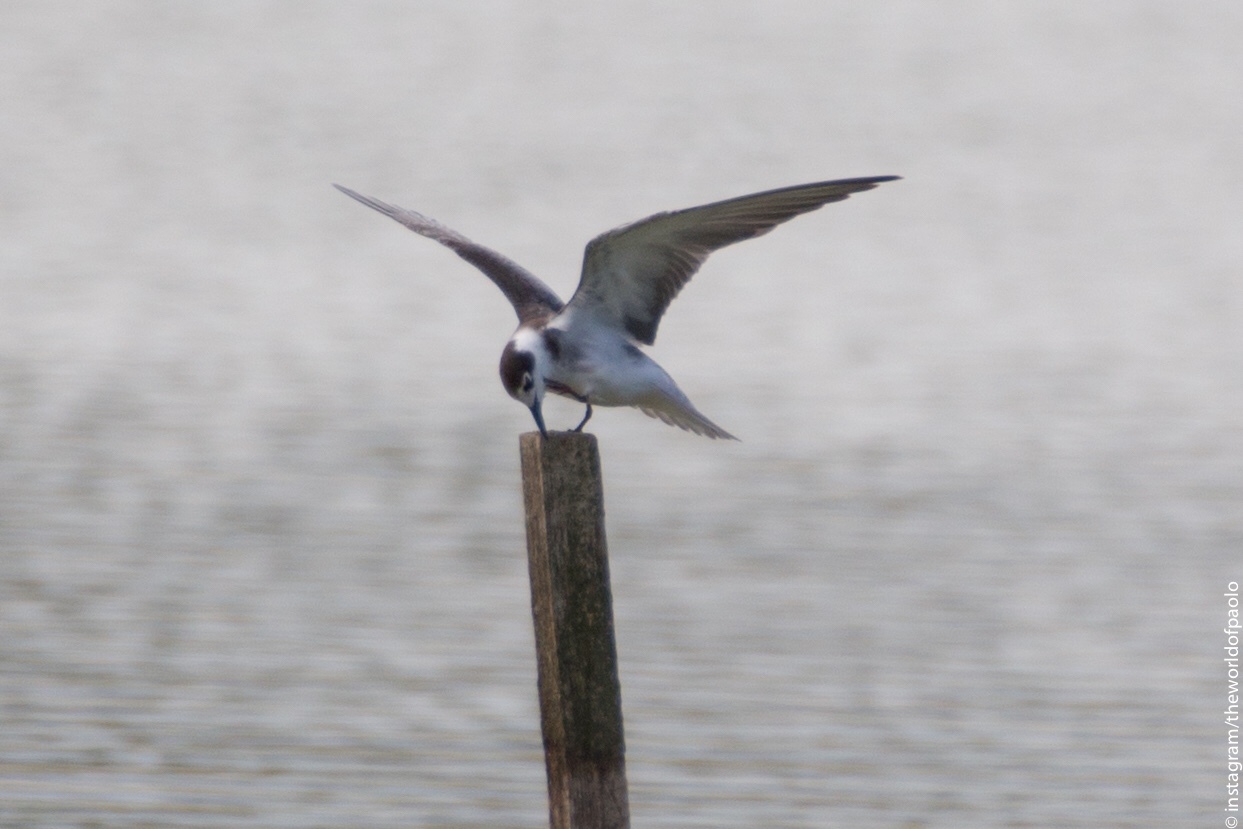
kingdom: Animalia
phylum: Chordata
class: Aves
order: Charadriiformes
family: Laridae
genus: Chlidonias
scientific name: Chlidonias niger
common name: Black tern
